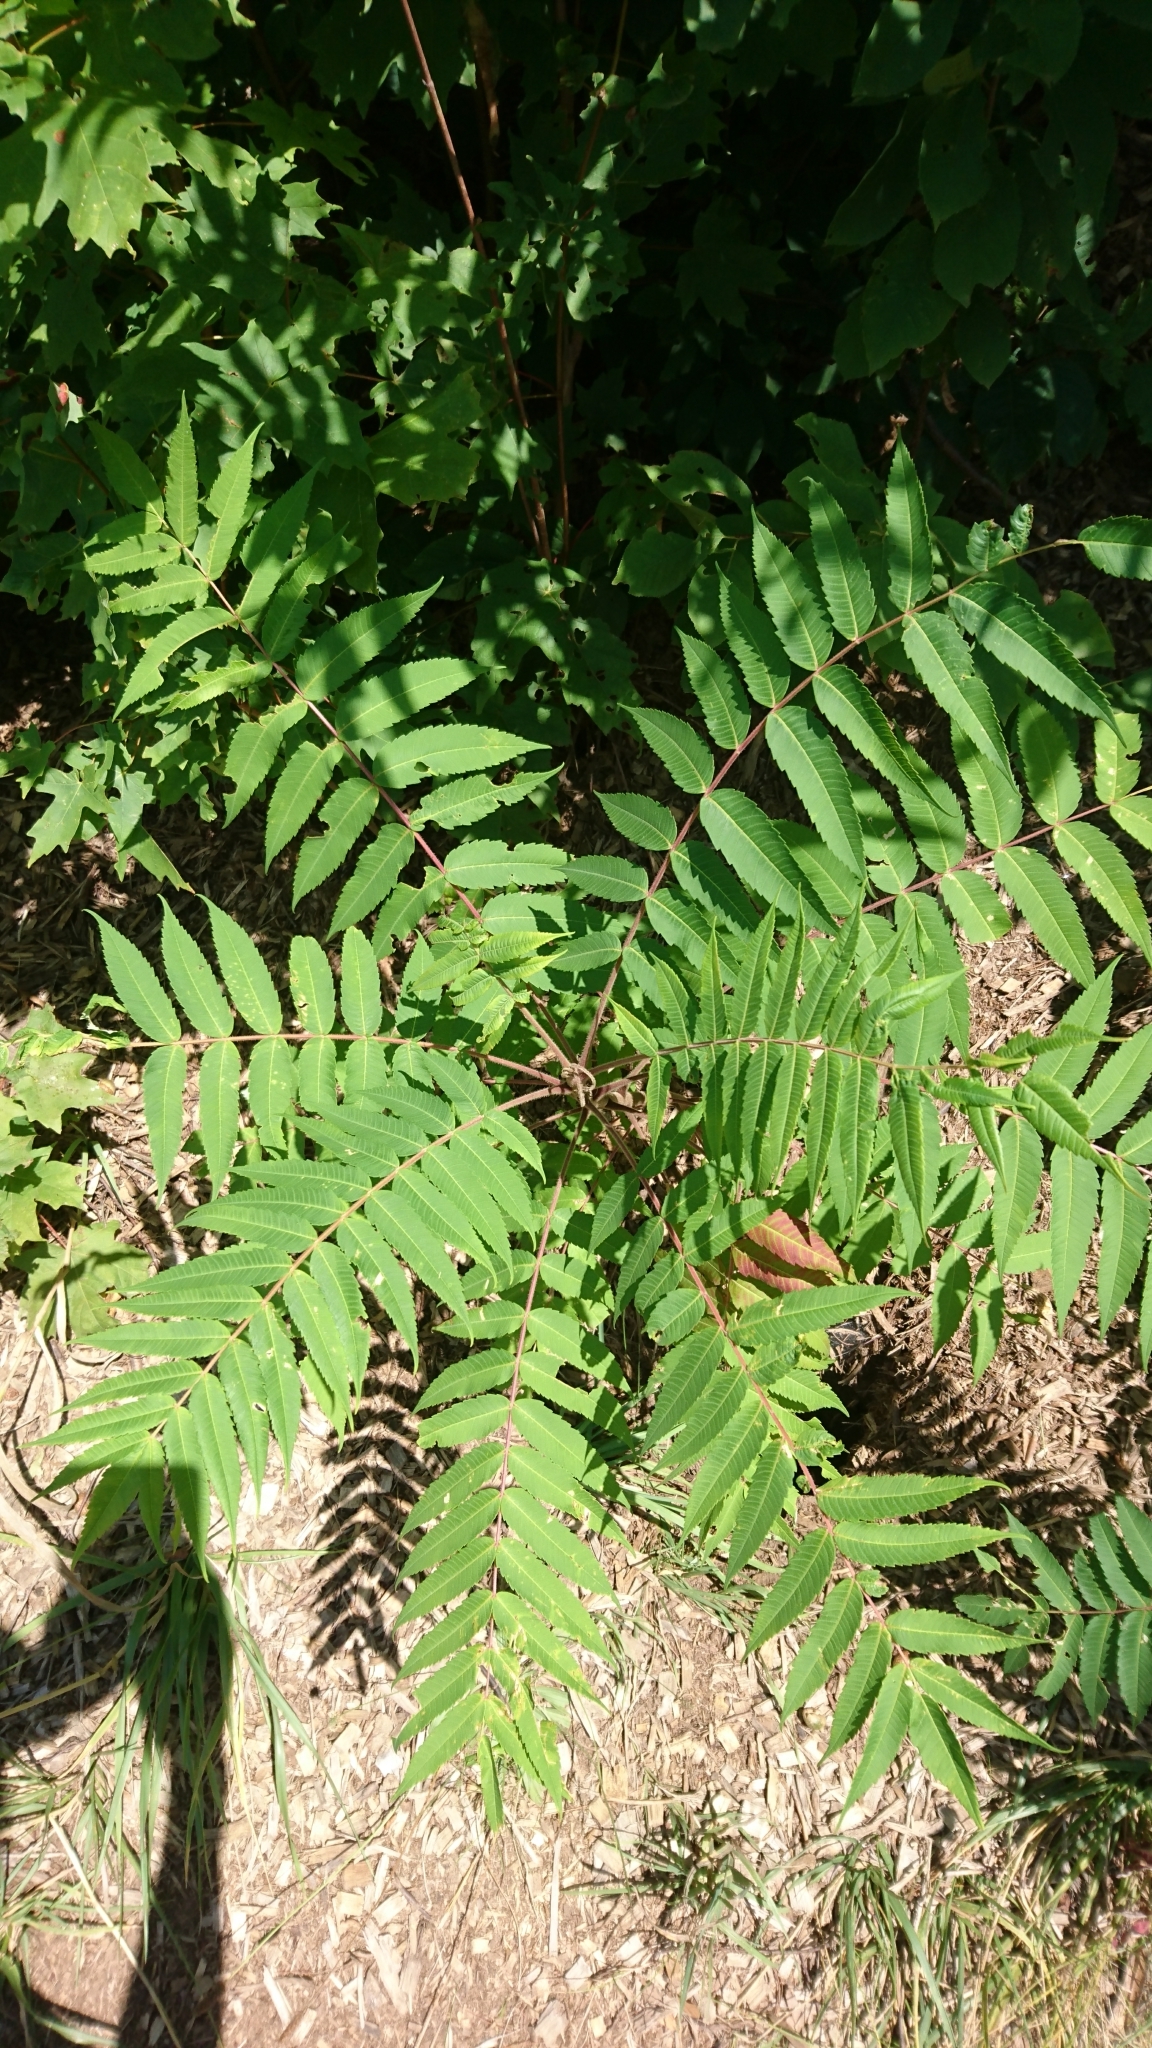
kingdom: Plantae
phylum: Tracheophyta
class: Magnoliopsida
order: Sapindales
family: Anacardiaceae
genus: Rhus
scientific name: Rhus typhina
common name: Staghorn sumac
